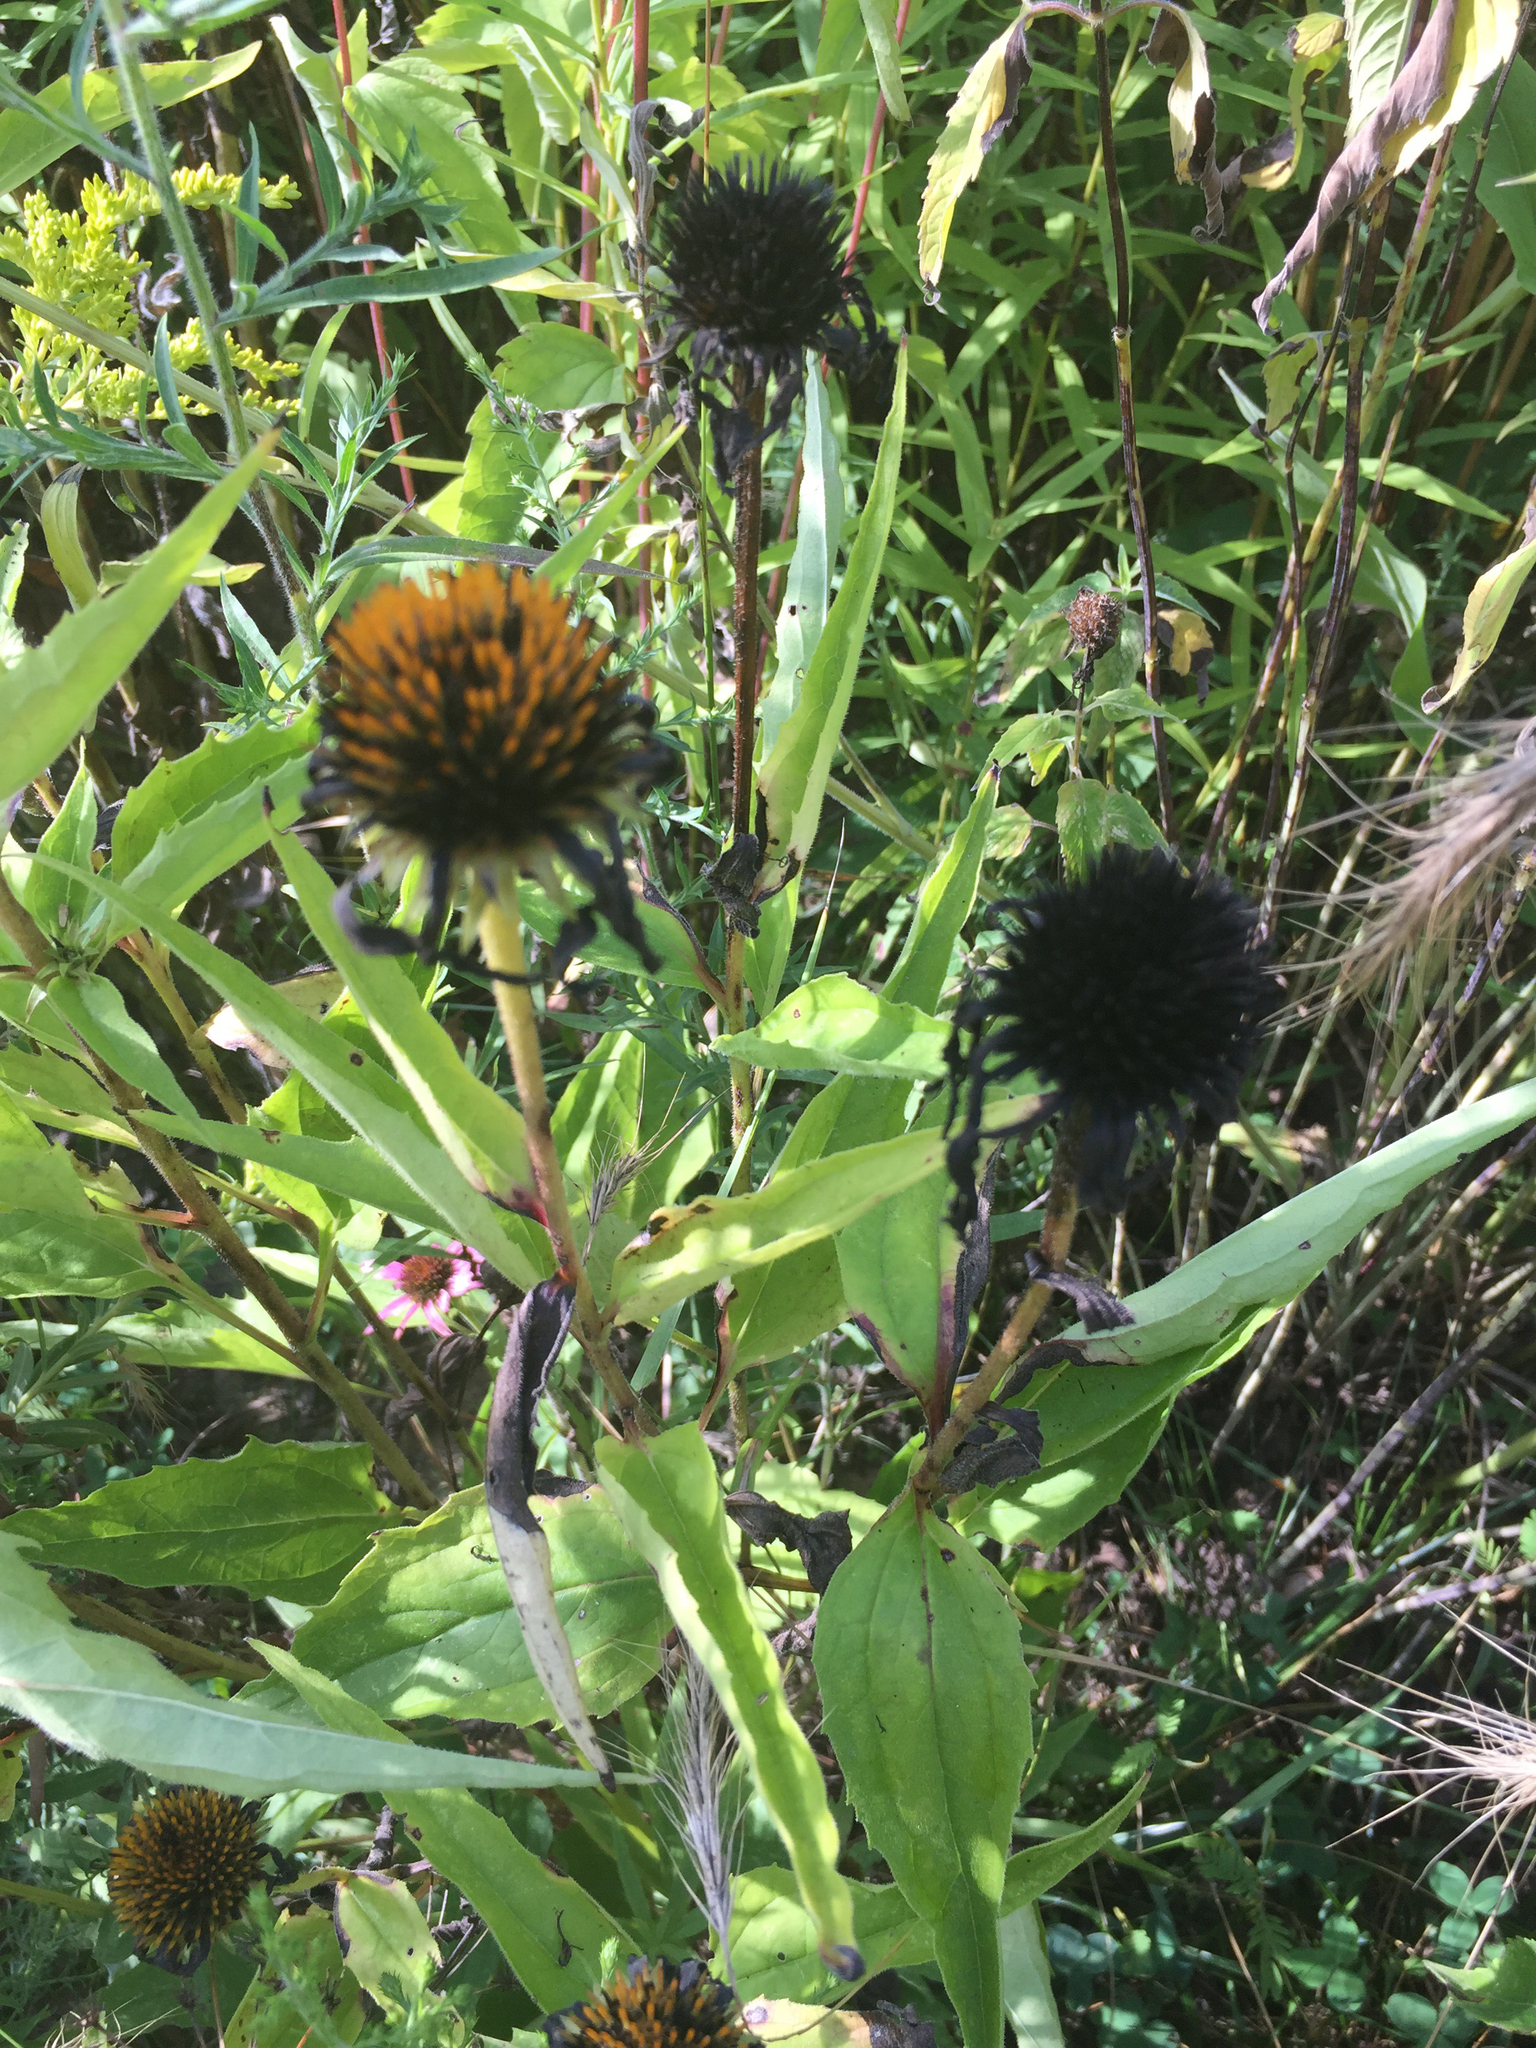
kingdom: Plantae
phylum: Tracheophyta
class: Magnoliopsida
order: Asterales
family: Asteraceae
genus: Echinacea
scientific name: Echinacea purpurea
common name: Broad-leaved purple coneflower
